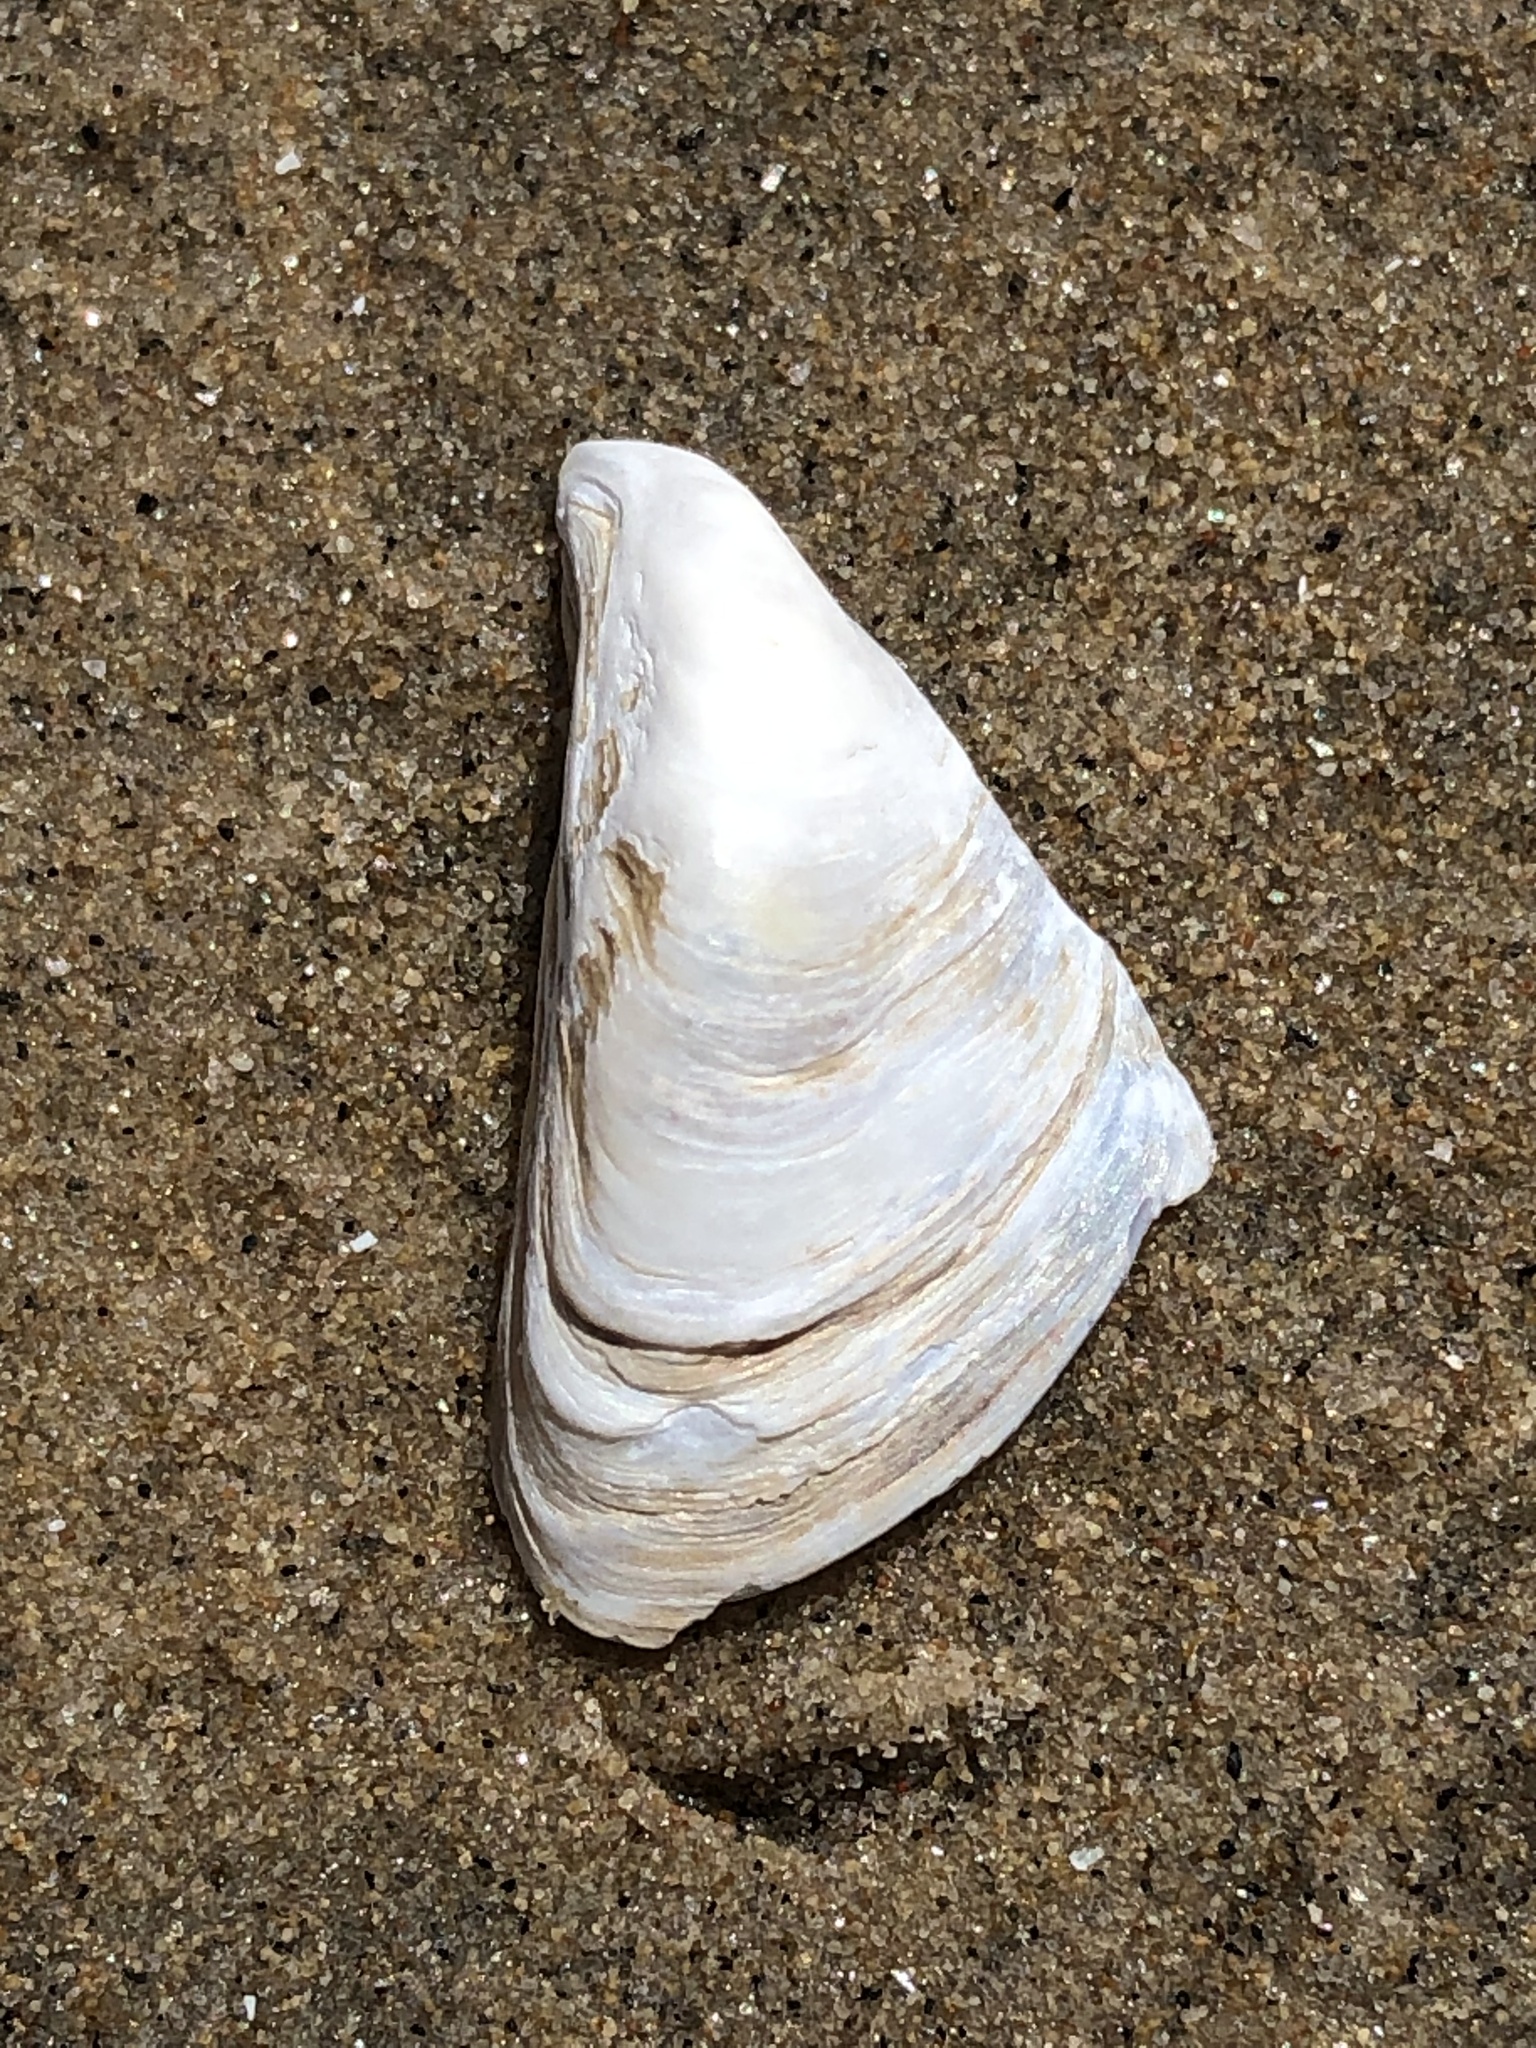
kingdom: Animalia
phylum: Mollusca
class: Bivalvia
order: Myida
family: Dreissenidae
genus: Dreissena
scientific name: Dreissena bugensis
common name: Quagga mussel
